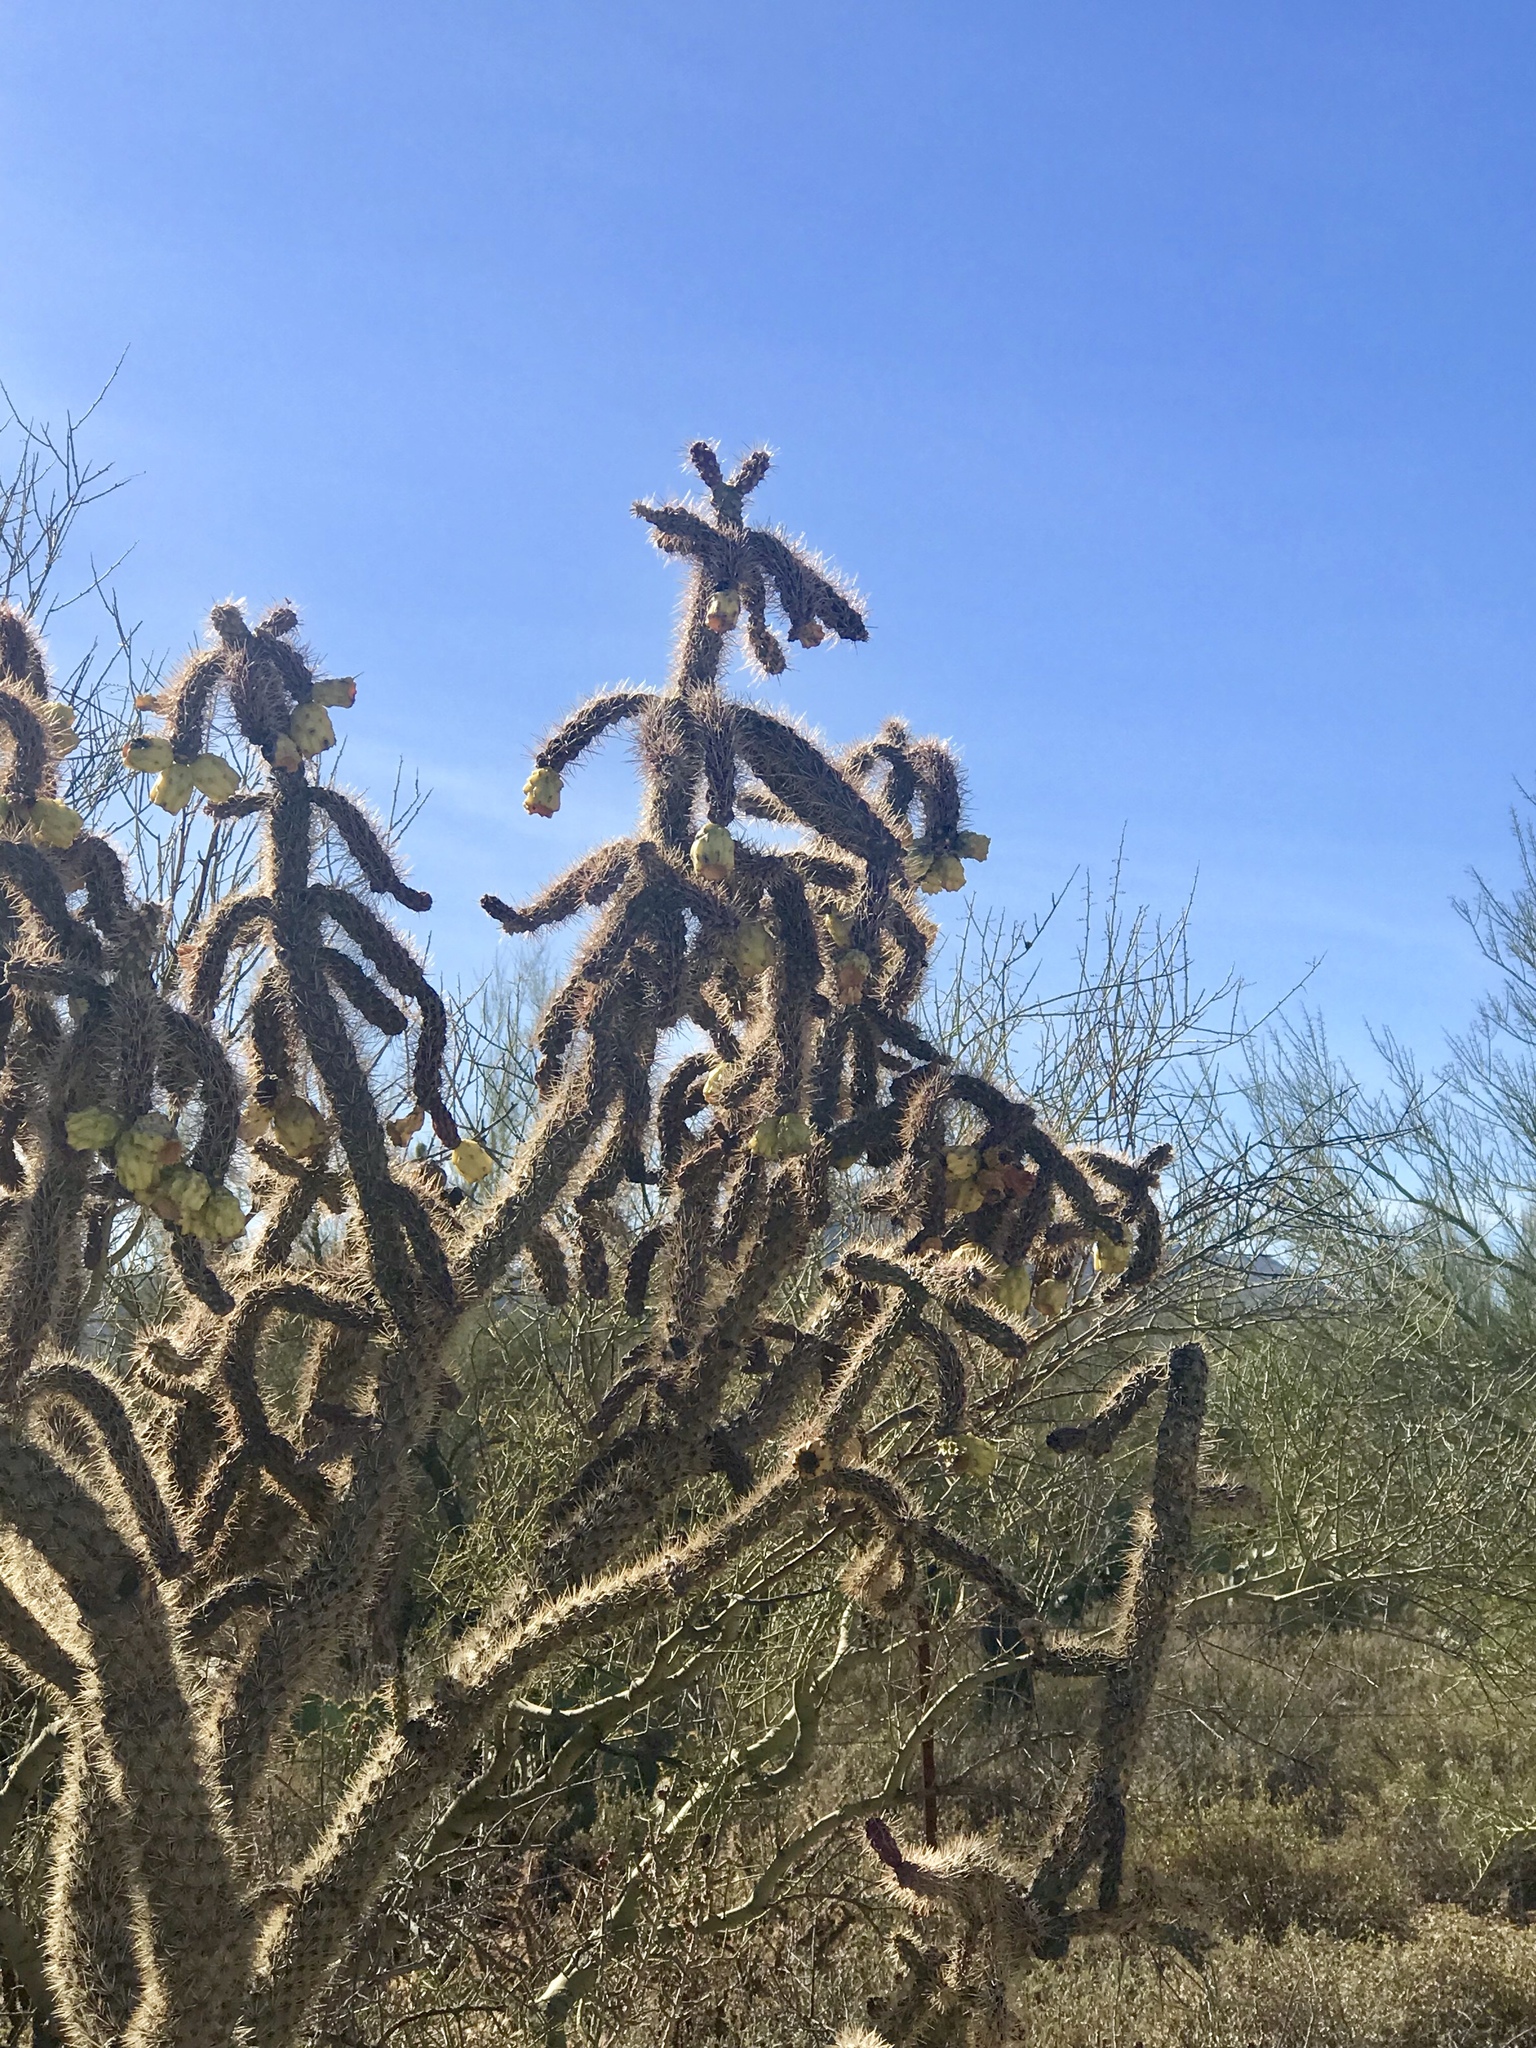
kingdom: Plantae
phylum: Tracheophyta
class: Magnoliopsida
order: Caryophyllales
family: Cactaceae
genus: Cylindropuntia
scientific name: Cylindropuntia imbricata
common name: Candelabrum cactus
